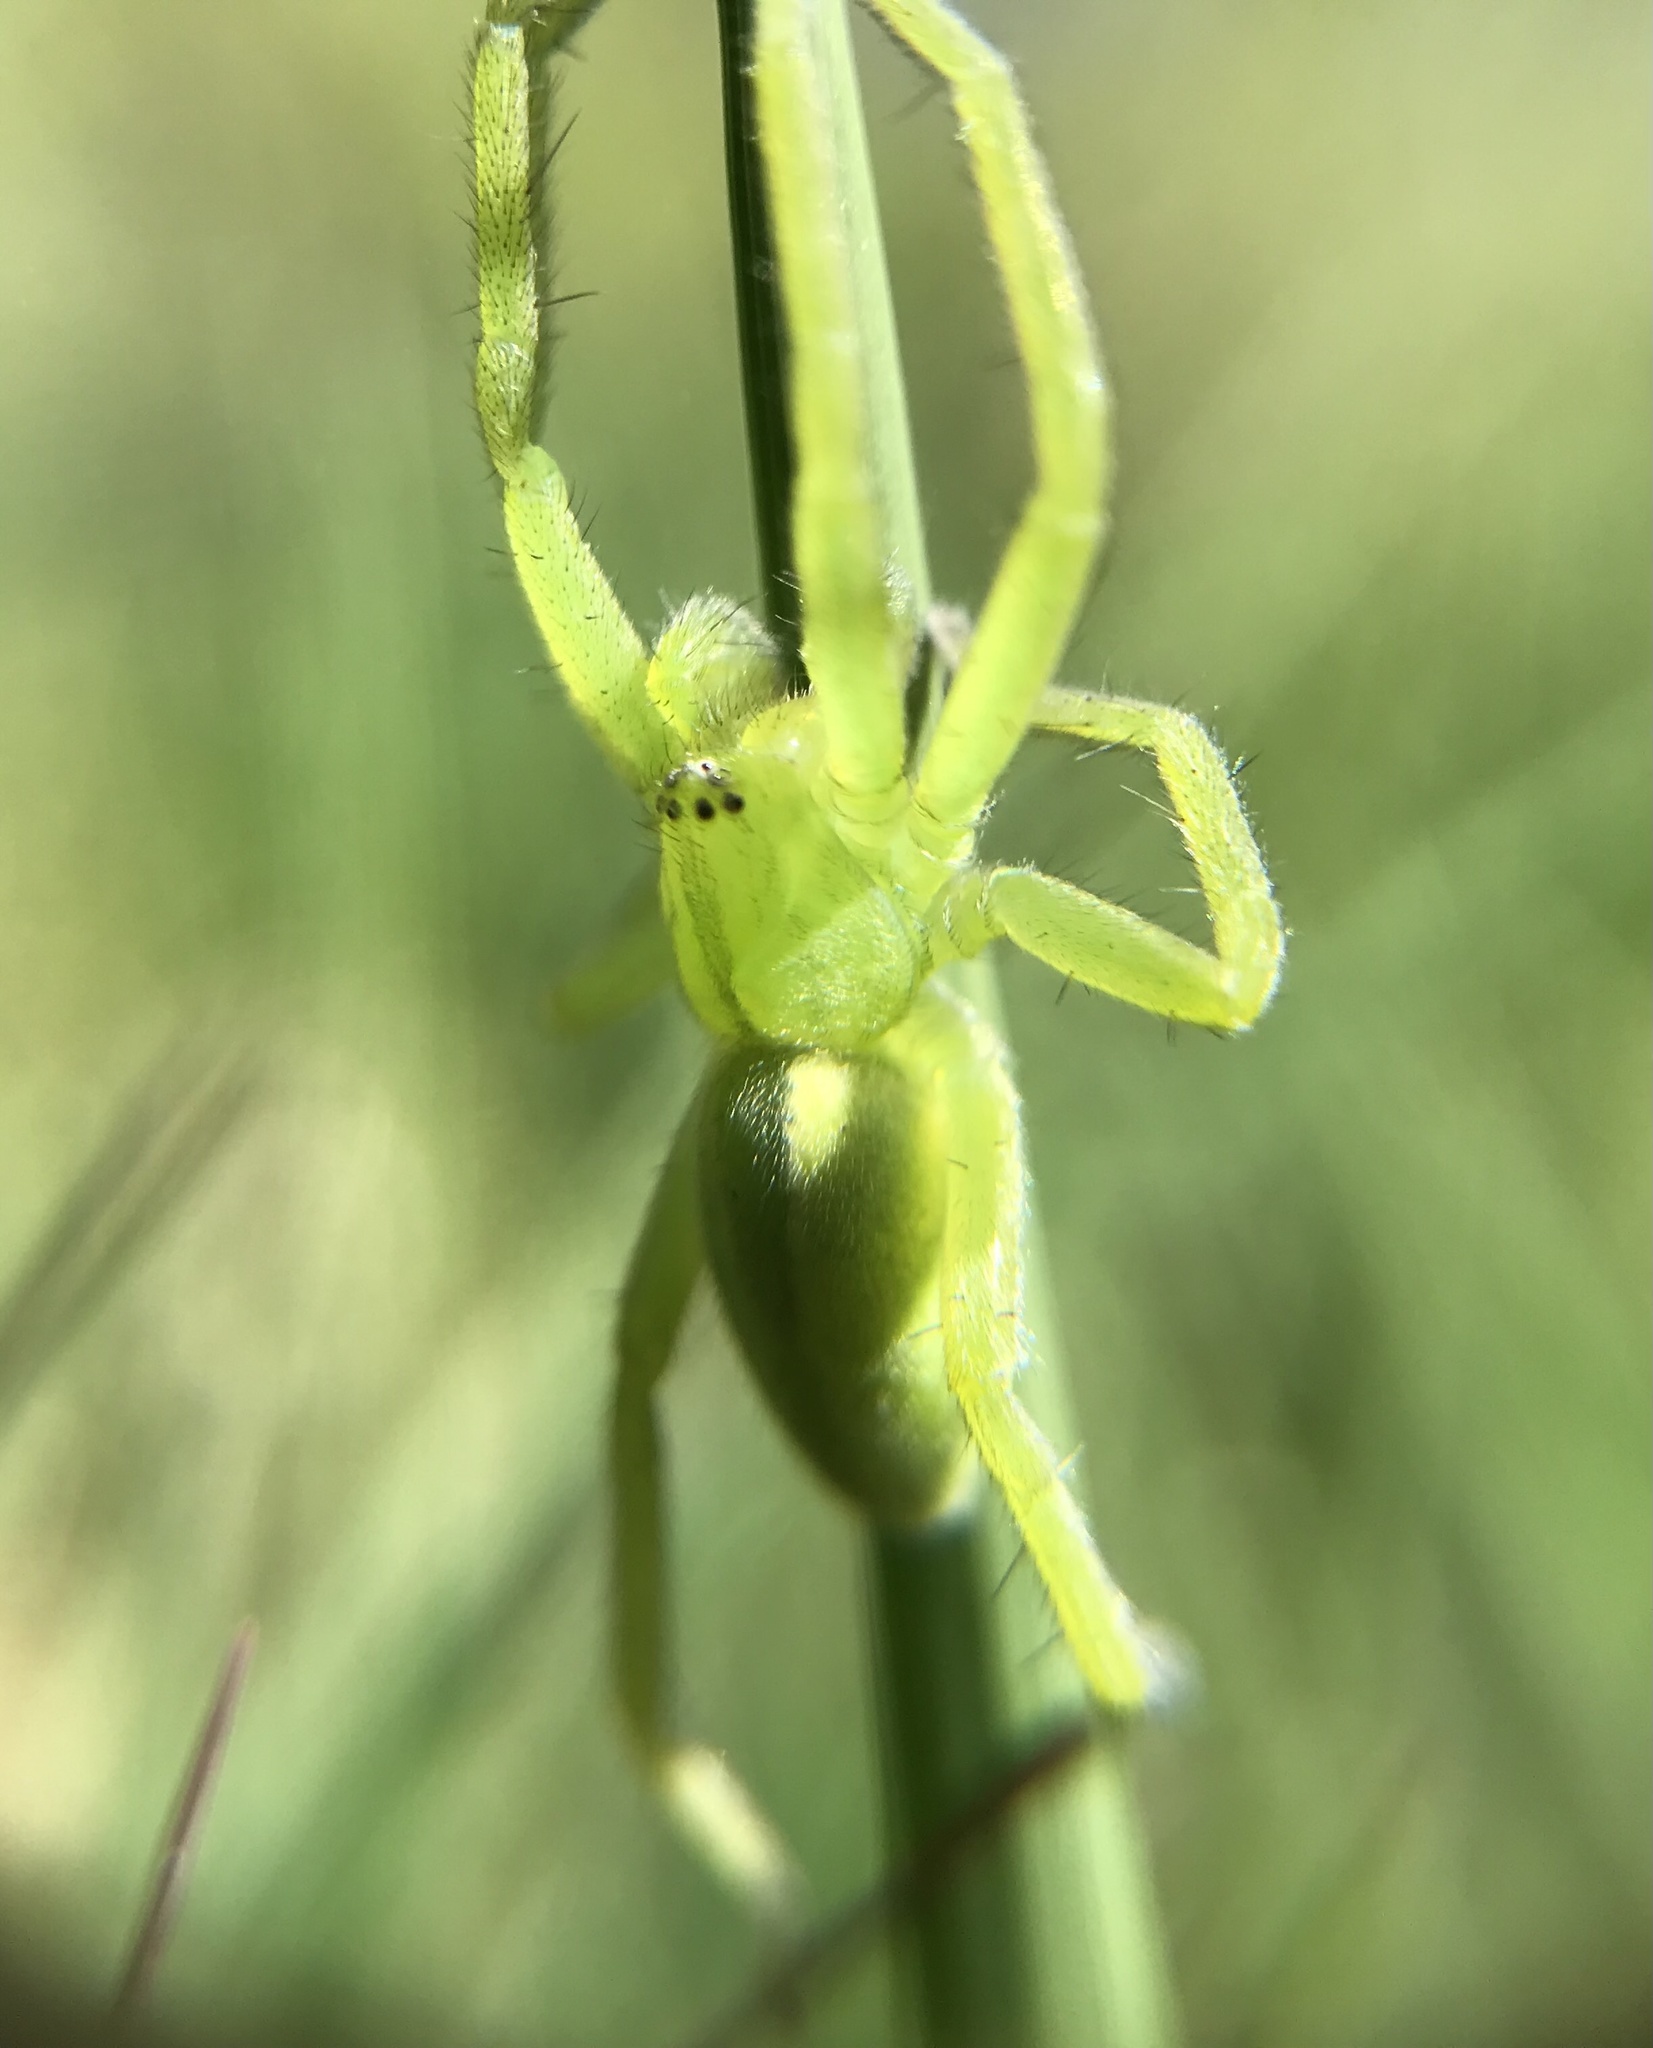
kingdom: Animalia
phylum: Arthropoda
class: Arachnida
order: Araneae
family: Sparassidae
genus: Micrommata
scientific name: Micrommata virescens
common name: Green spider
